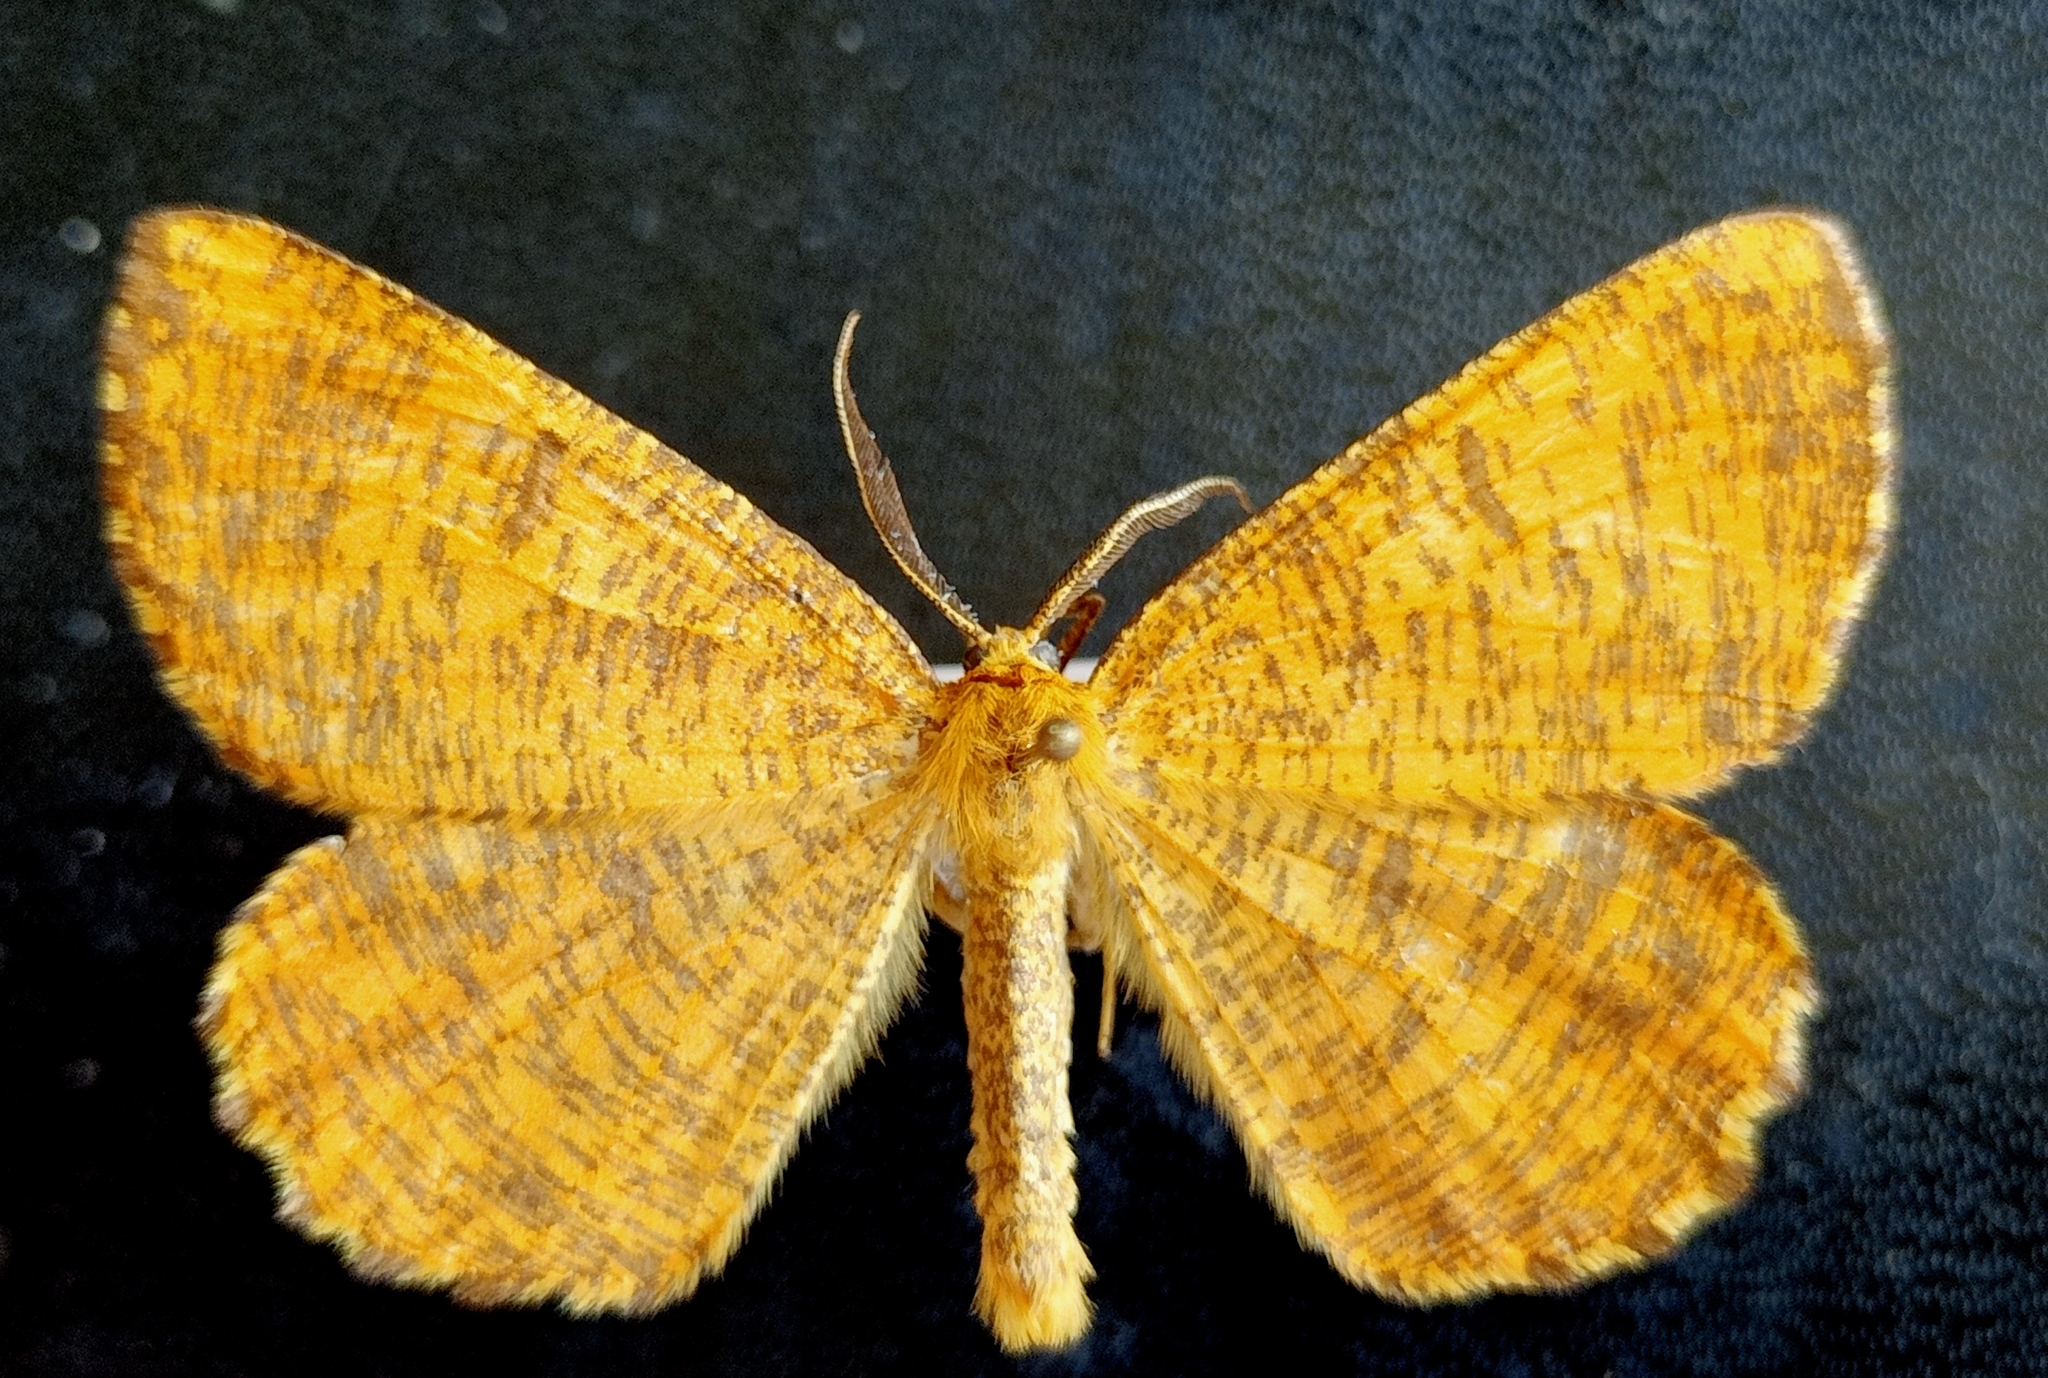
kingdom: Animalia
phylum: Arthropoda
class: Insecta
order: Lepidoptera
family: Geometridae
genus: Angerona
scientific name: Angerona prunaria
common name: Orange moth
